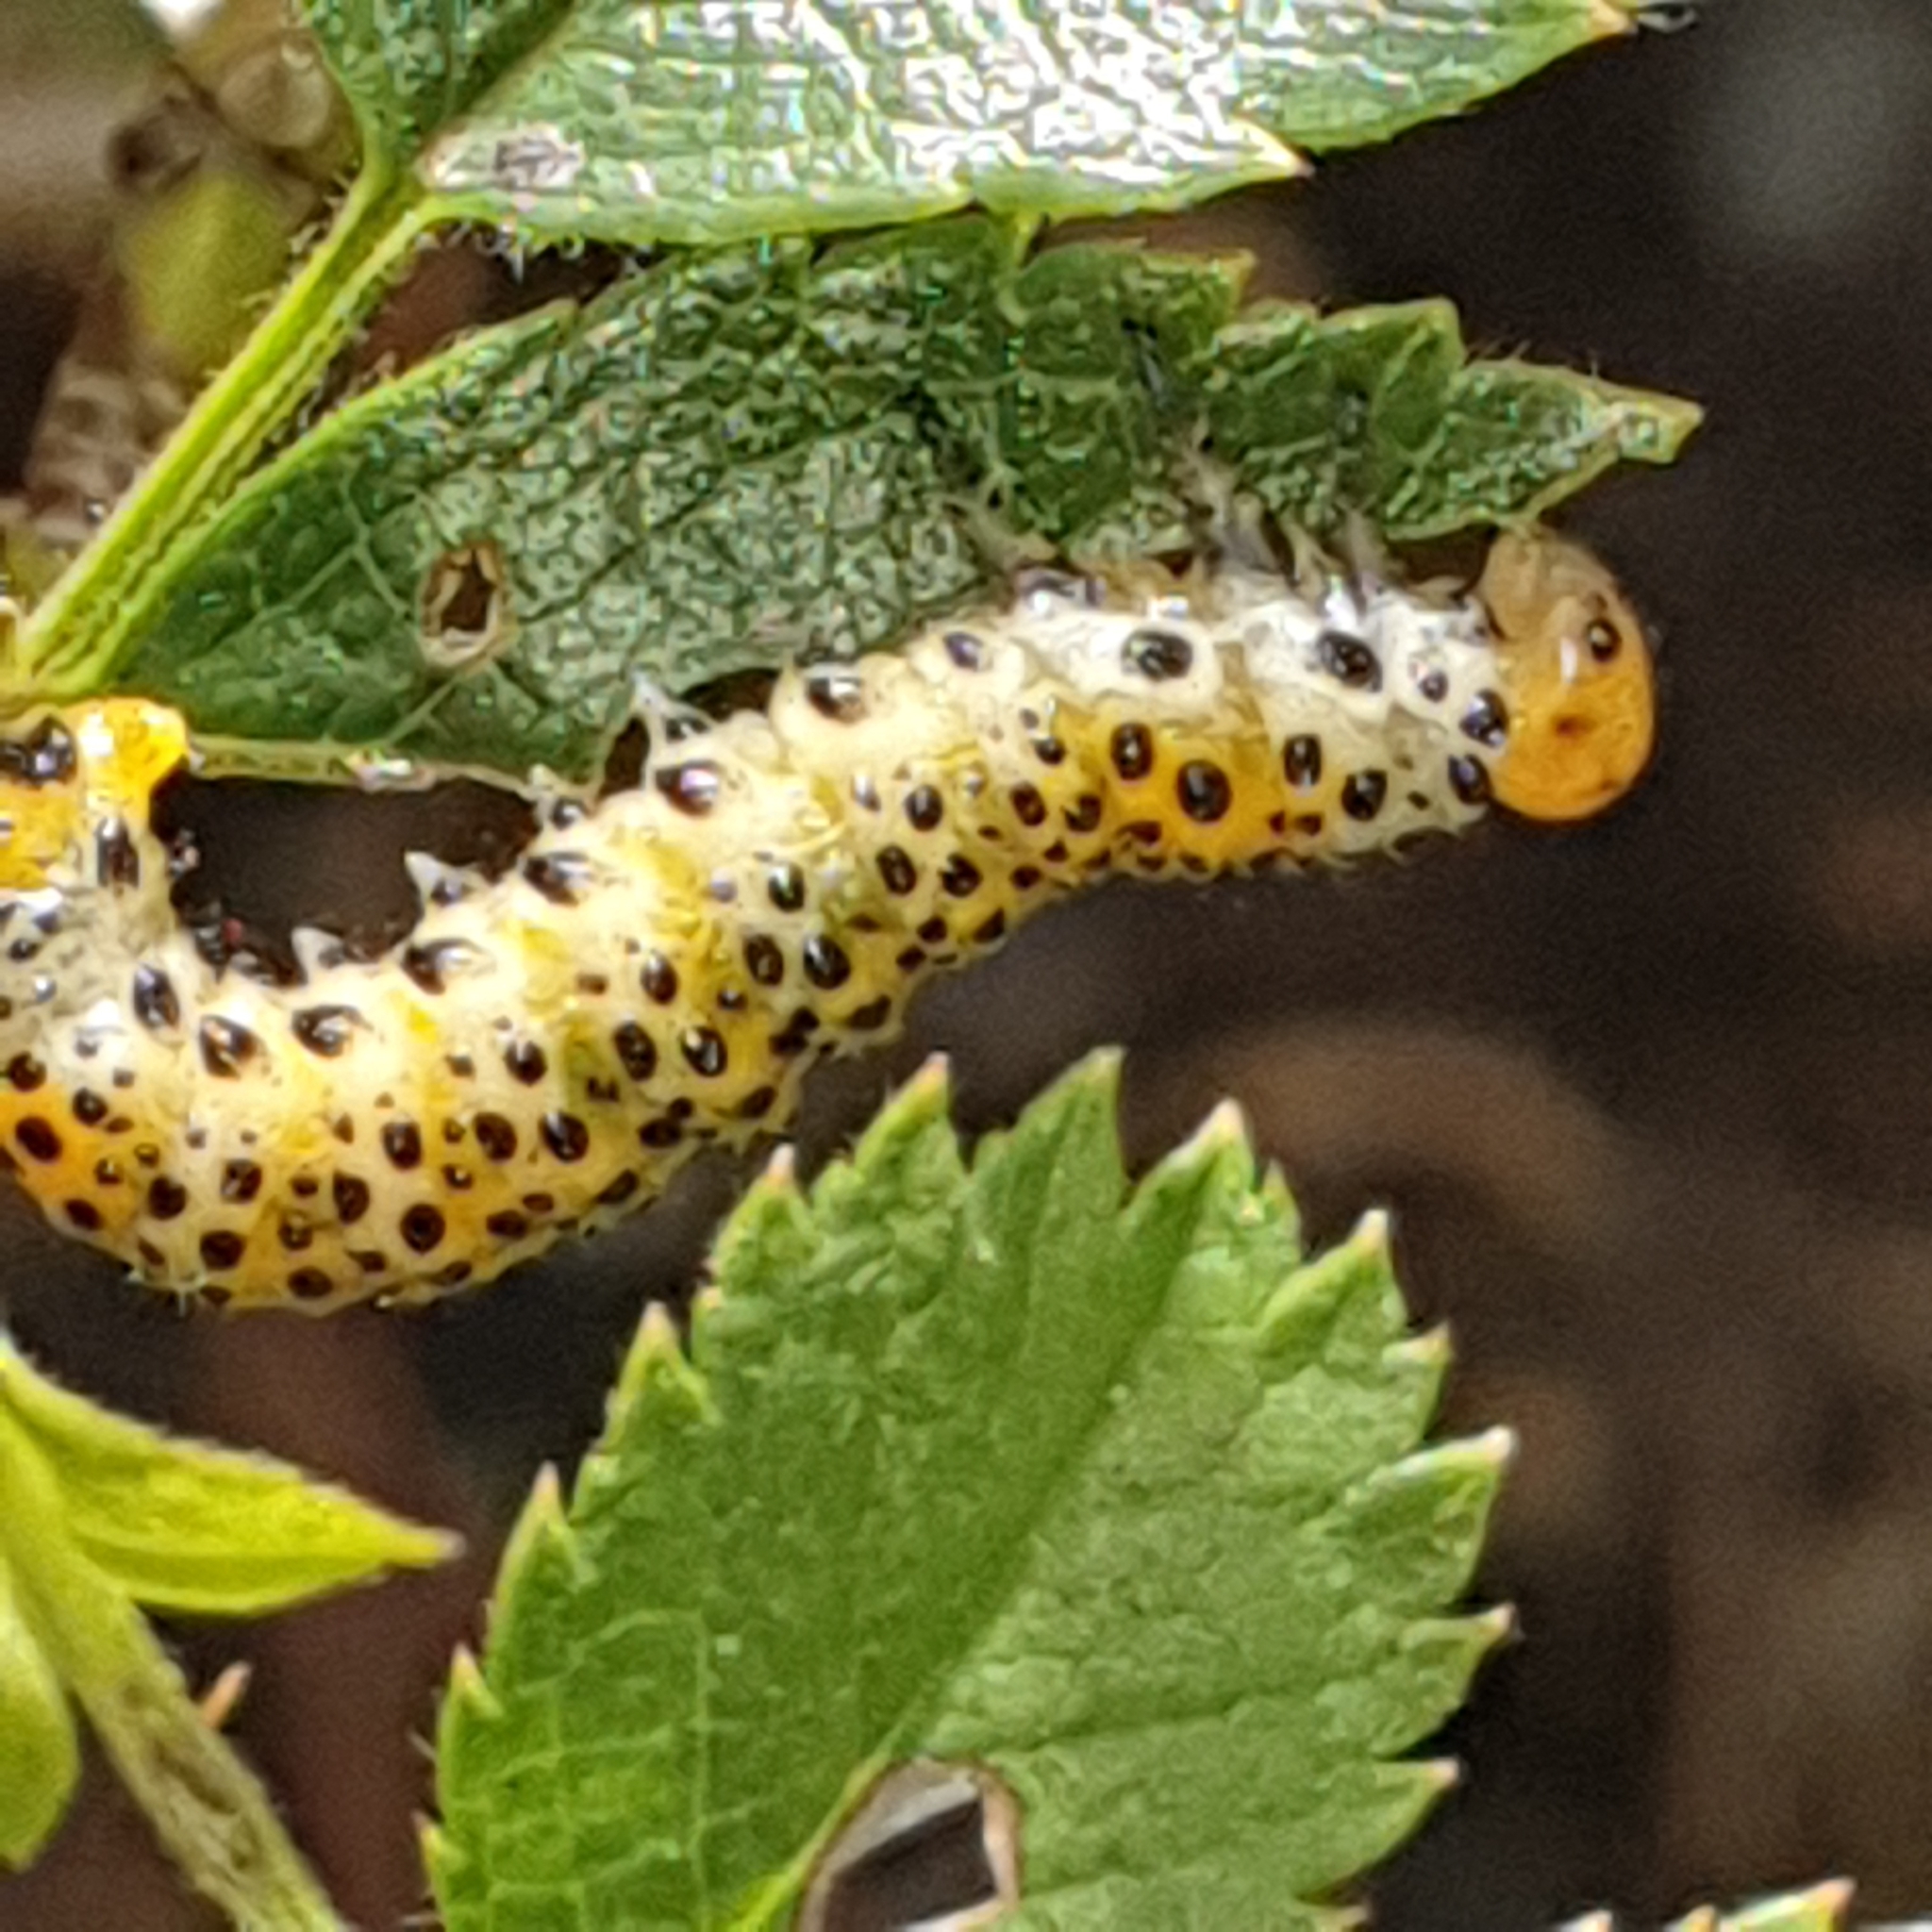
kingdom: Animalia
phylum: Arthropoda
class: Insecta
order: Hymenoptera
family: Argidae
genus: Arge
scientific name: Arge ochropus
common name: Argid sawfly
